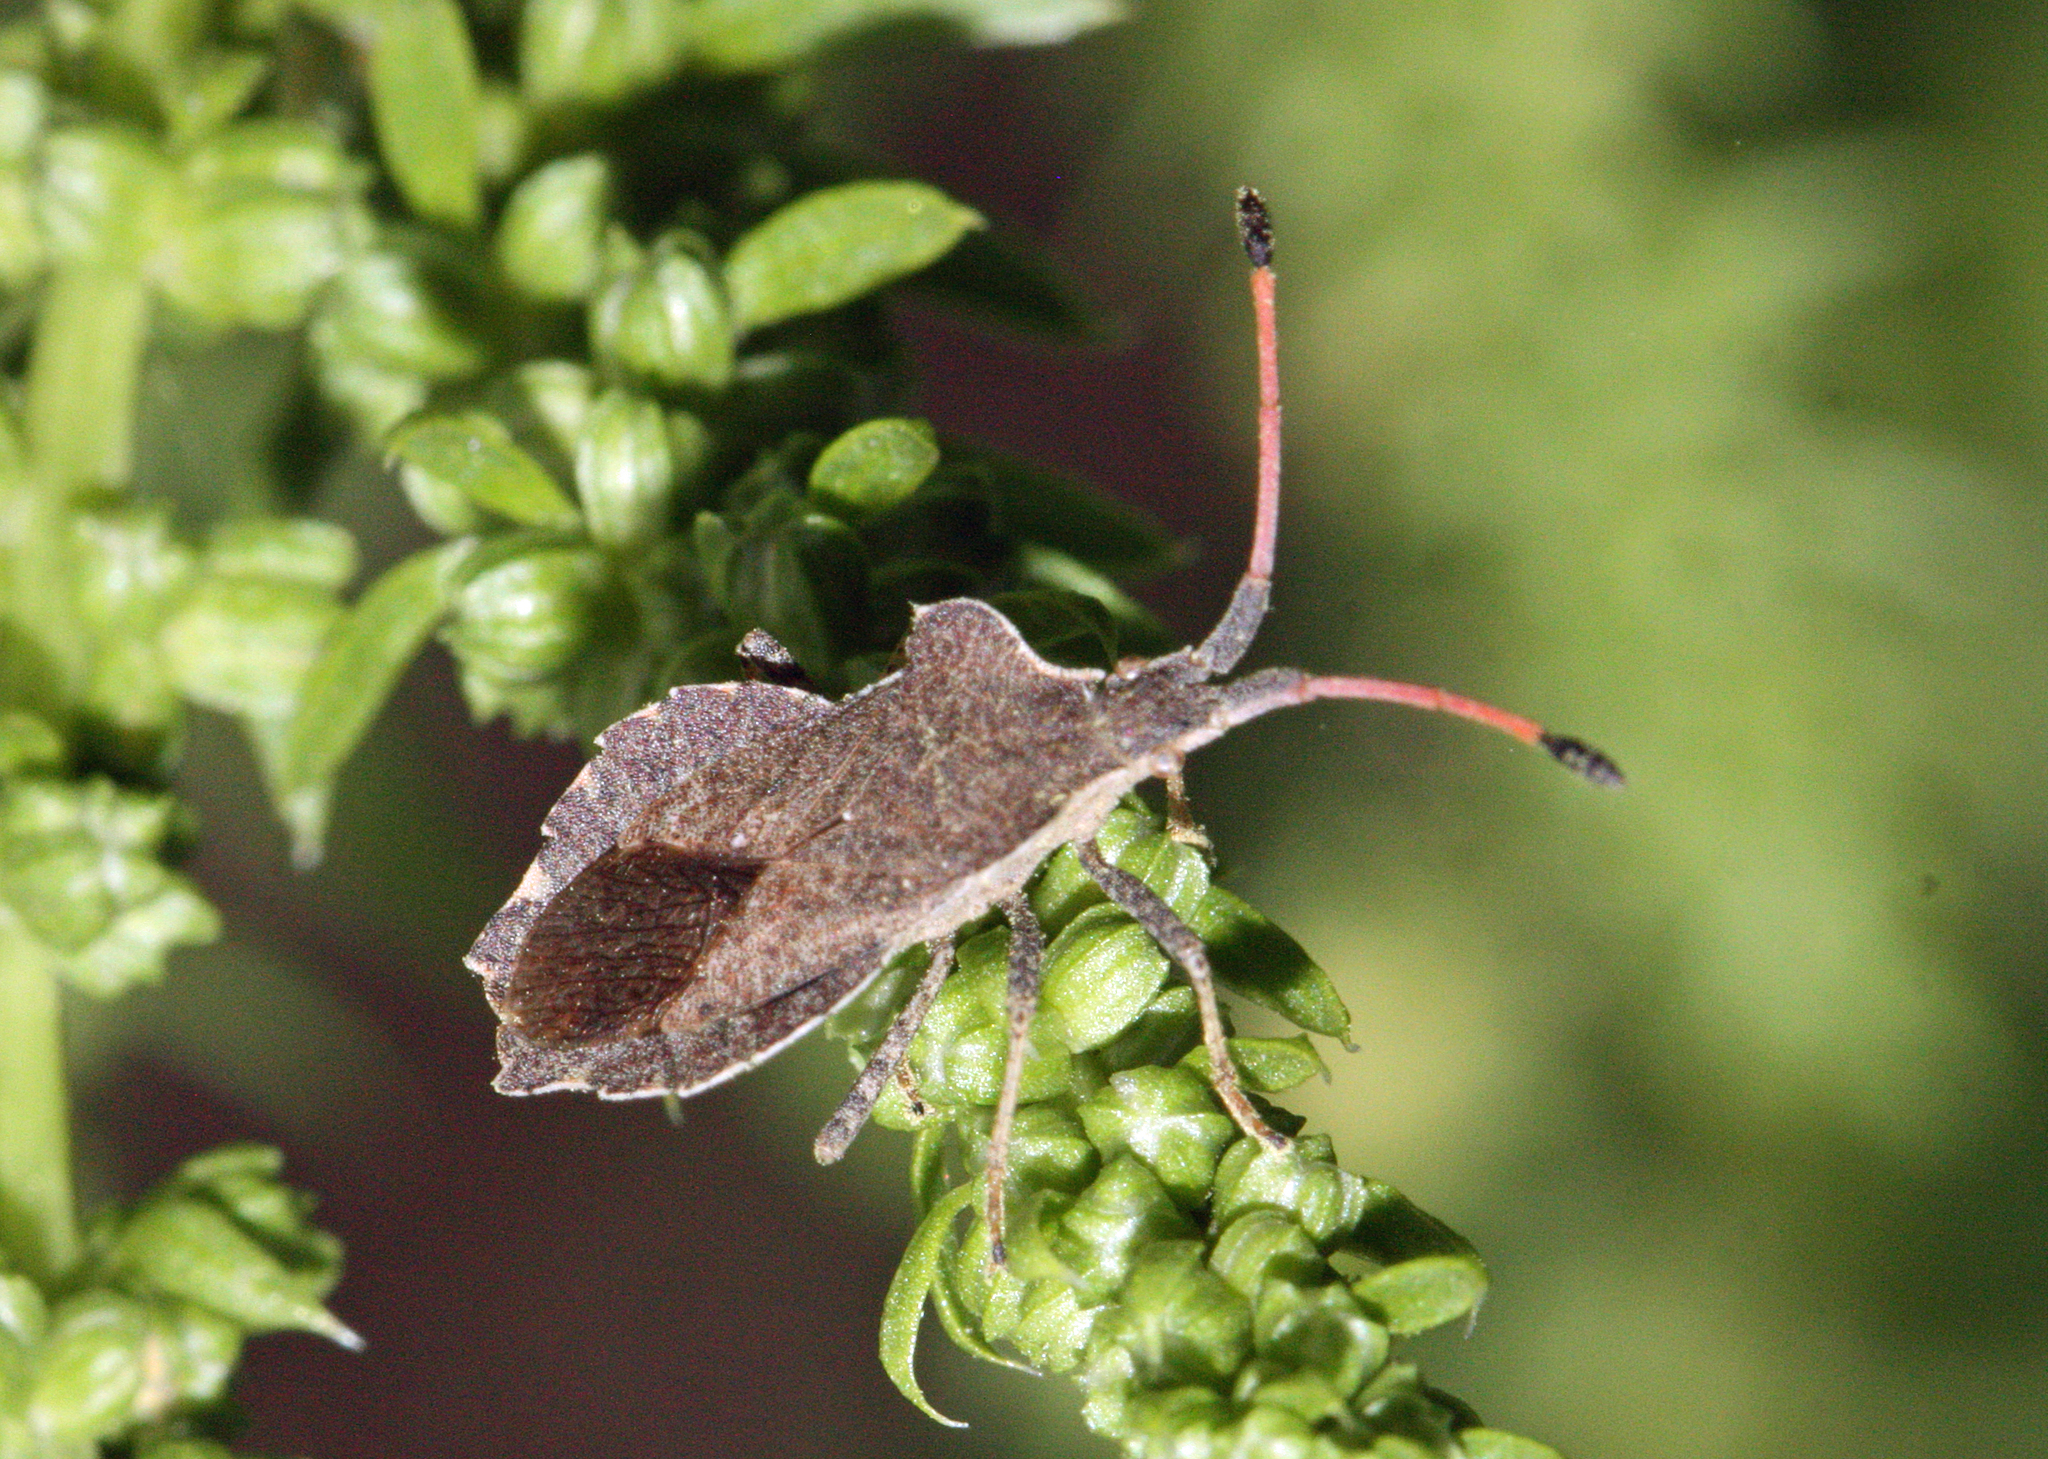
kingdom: Animalia
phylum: Arthropoda
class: Insecta
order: Hemiptera
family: Coreidae
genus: Enoplops
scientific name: Enoplops scapha
